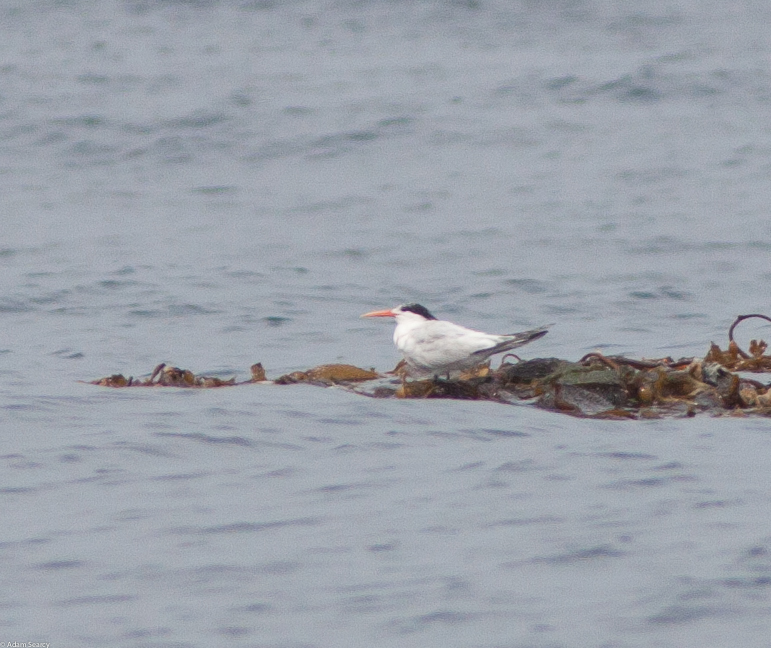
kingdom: Animalia
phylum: Chordata
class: Aves
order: Charadriiformes
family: Laridae
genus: Thalasseus
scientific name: Thalasseus elegans
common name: Elegant tern
